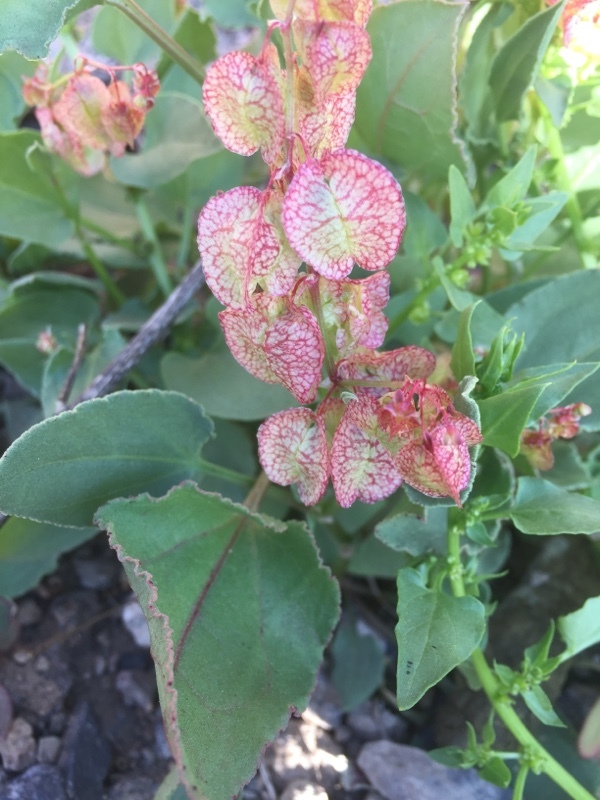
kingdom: Plantae
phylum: Tracheophyta
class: Magnoliopsida
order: Caryophyllales
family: Polygonaceae
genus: Rumex
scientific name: Rumex vesicarius
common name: Bladder dock
